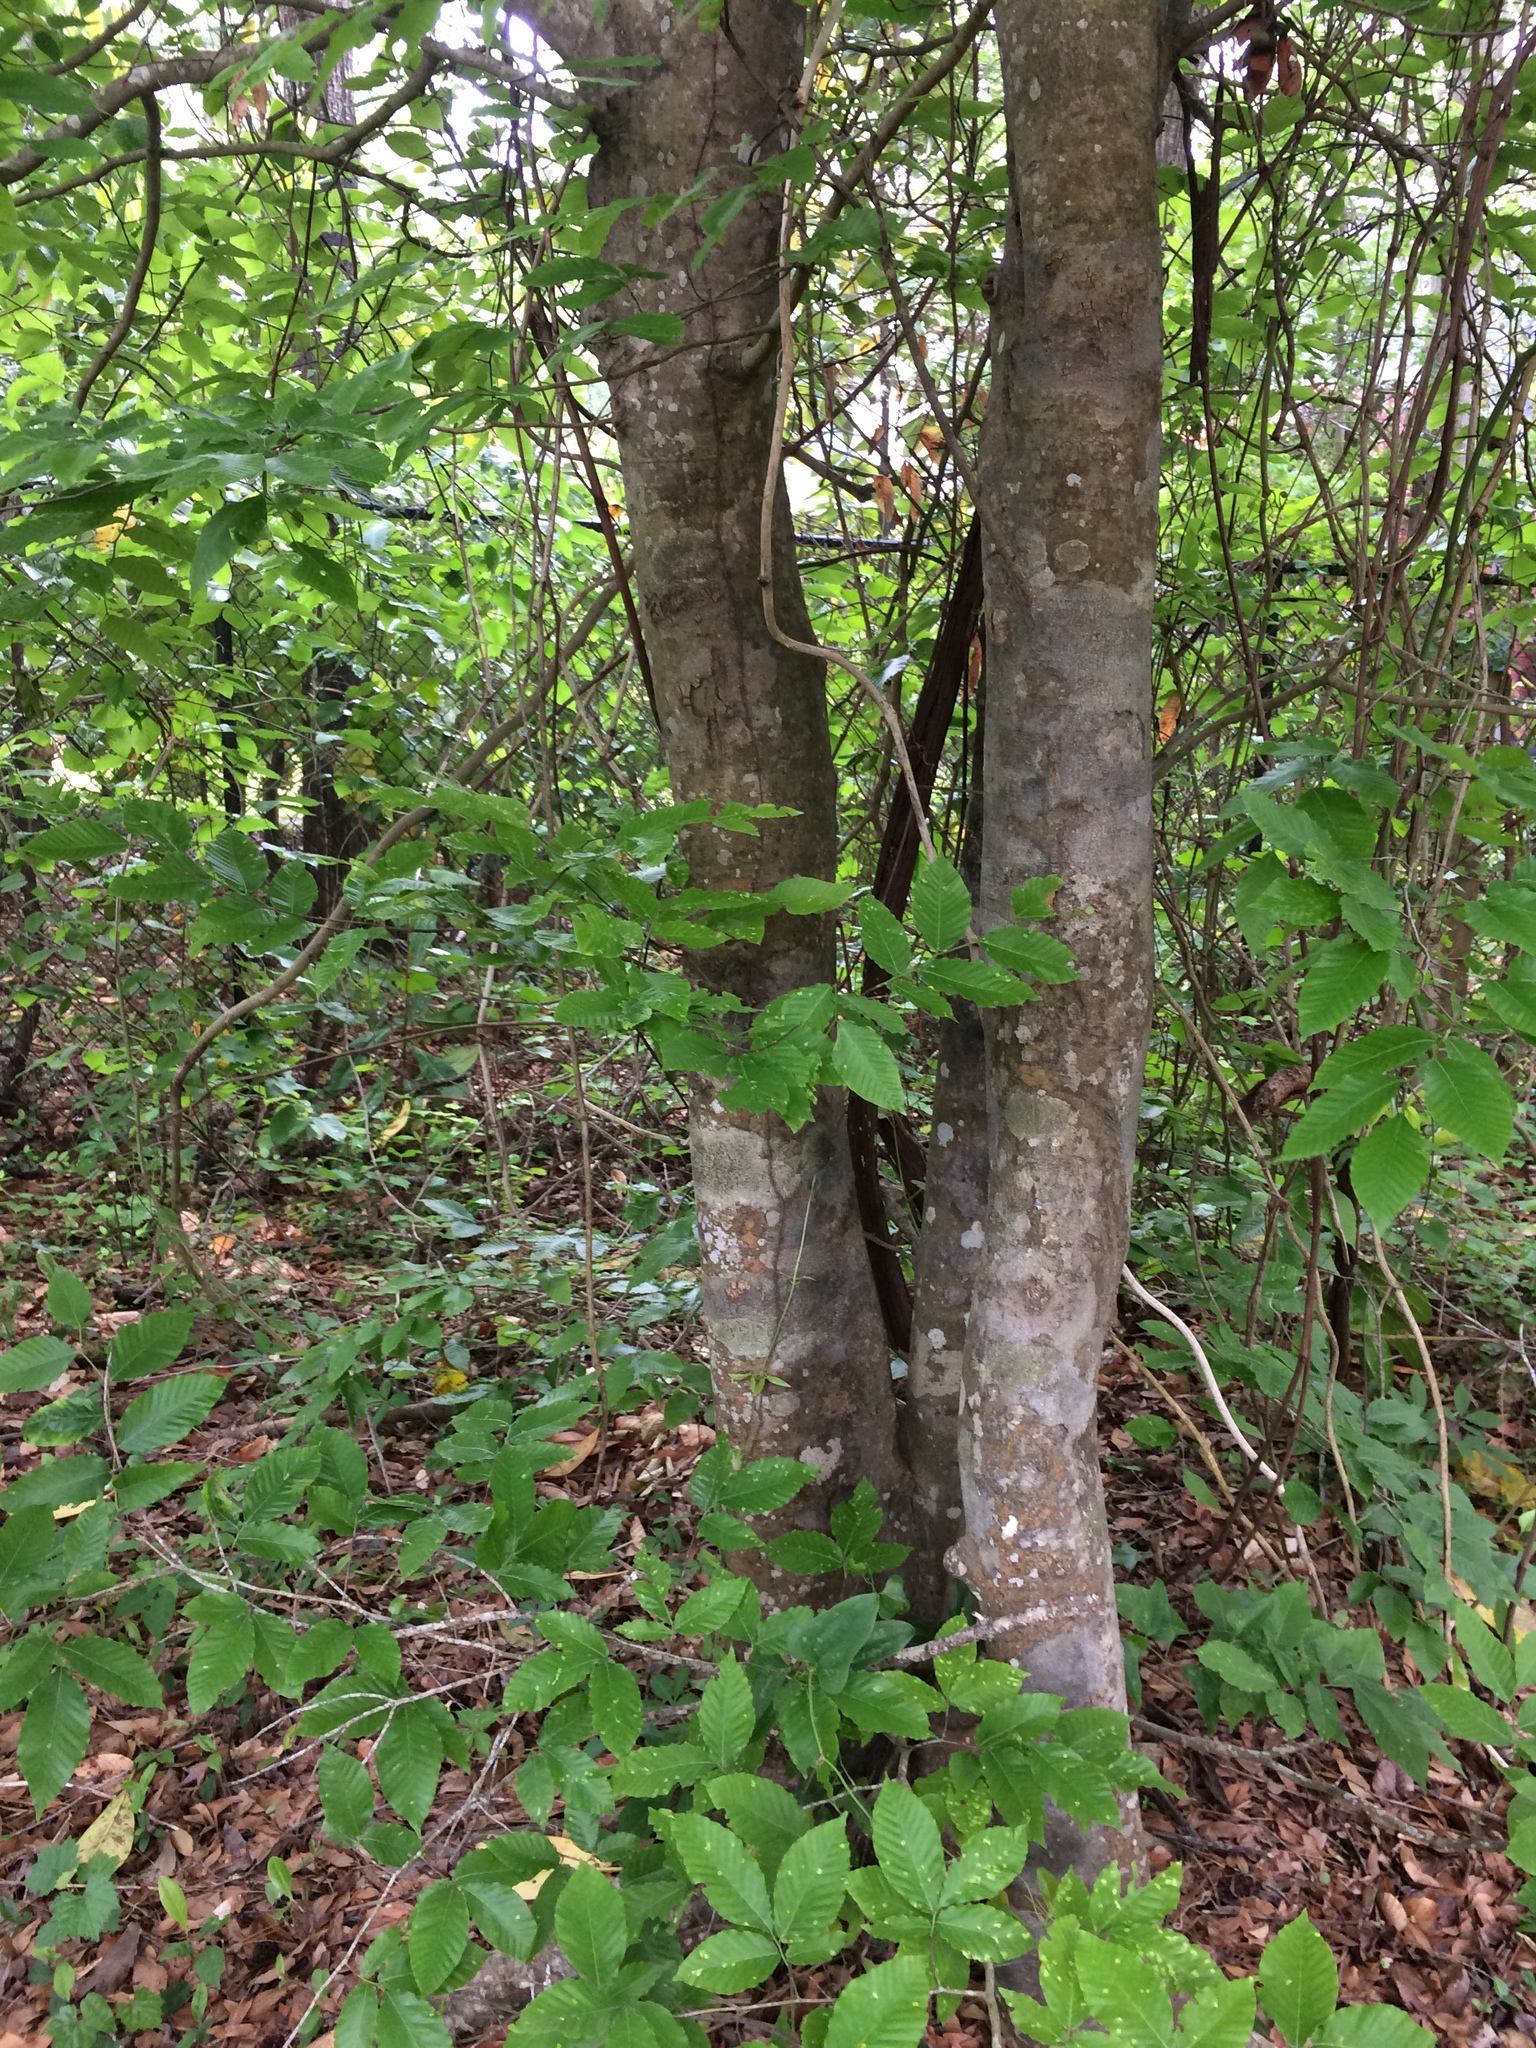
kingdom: Plantae
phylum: Tracheophyta
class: Magnoliopsida
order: Fagales
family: Fagaceae
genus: Fagus
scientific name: Fagus grandifolia
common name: American beech
